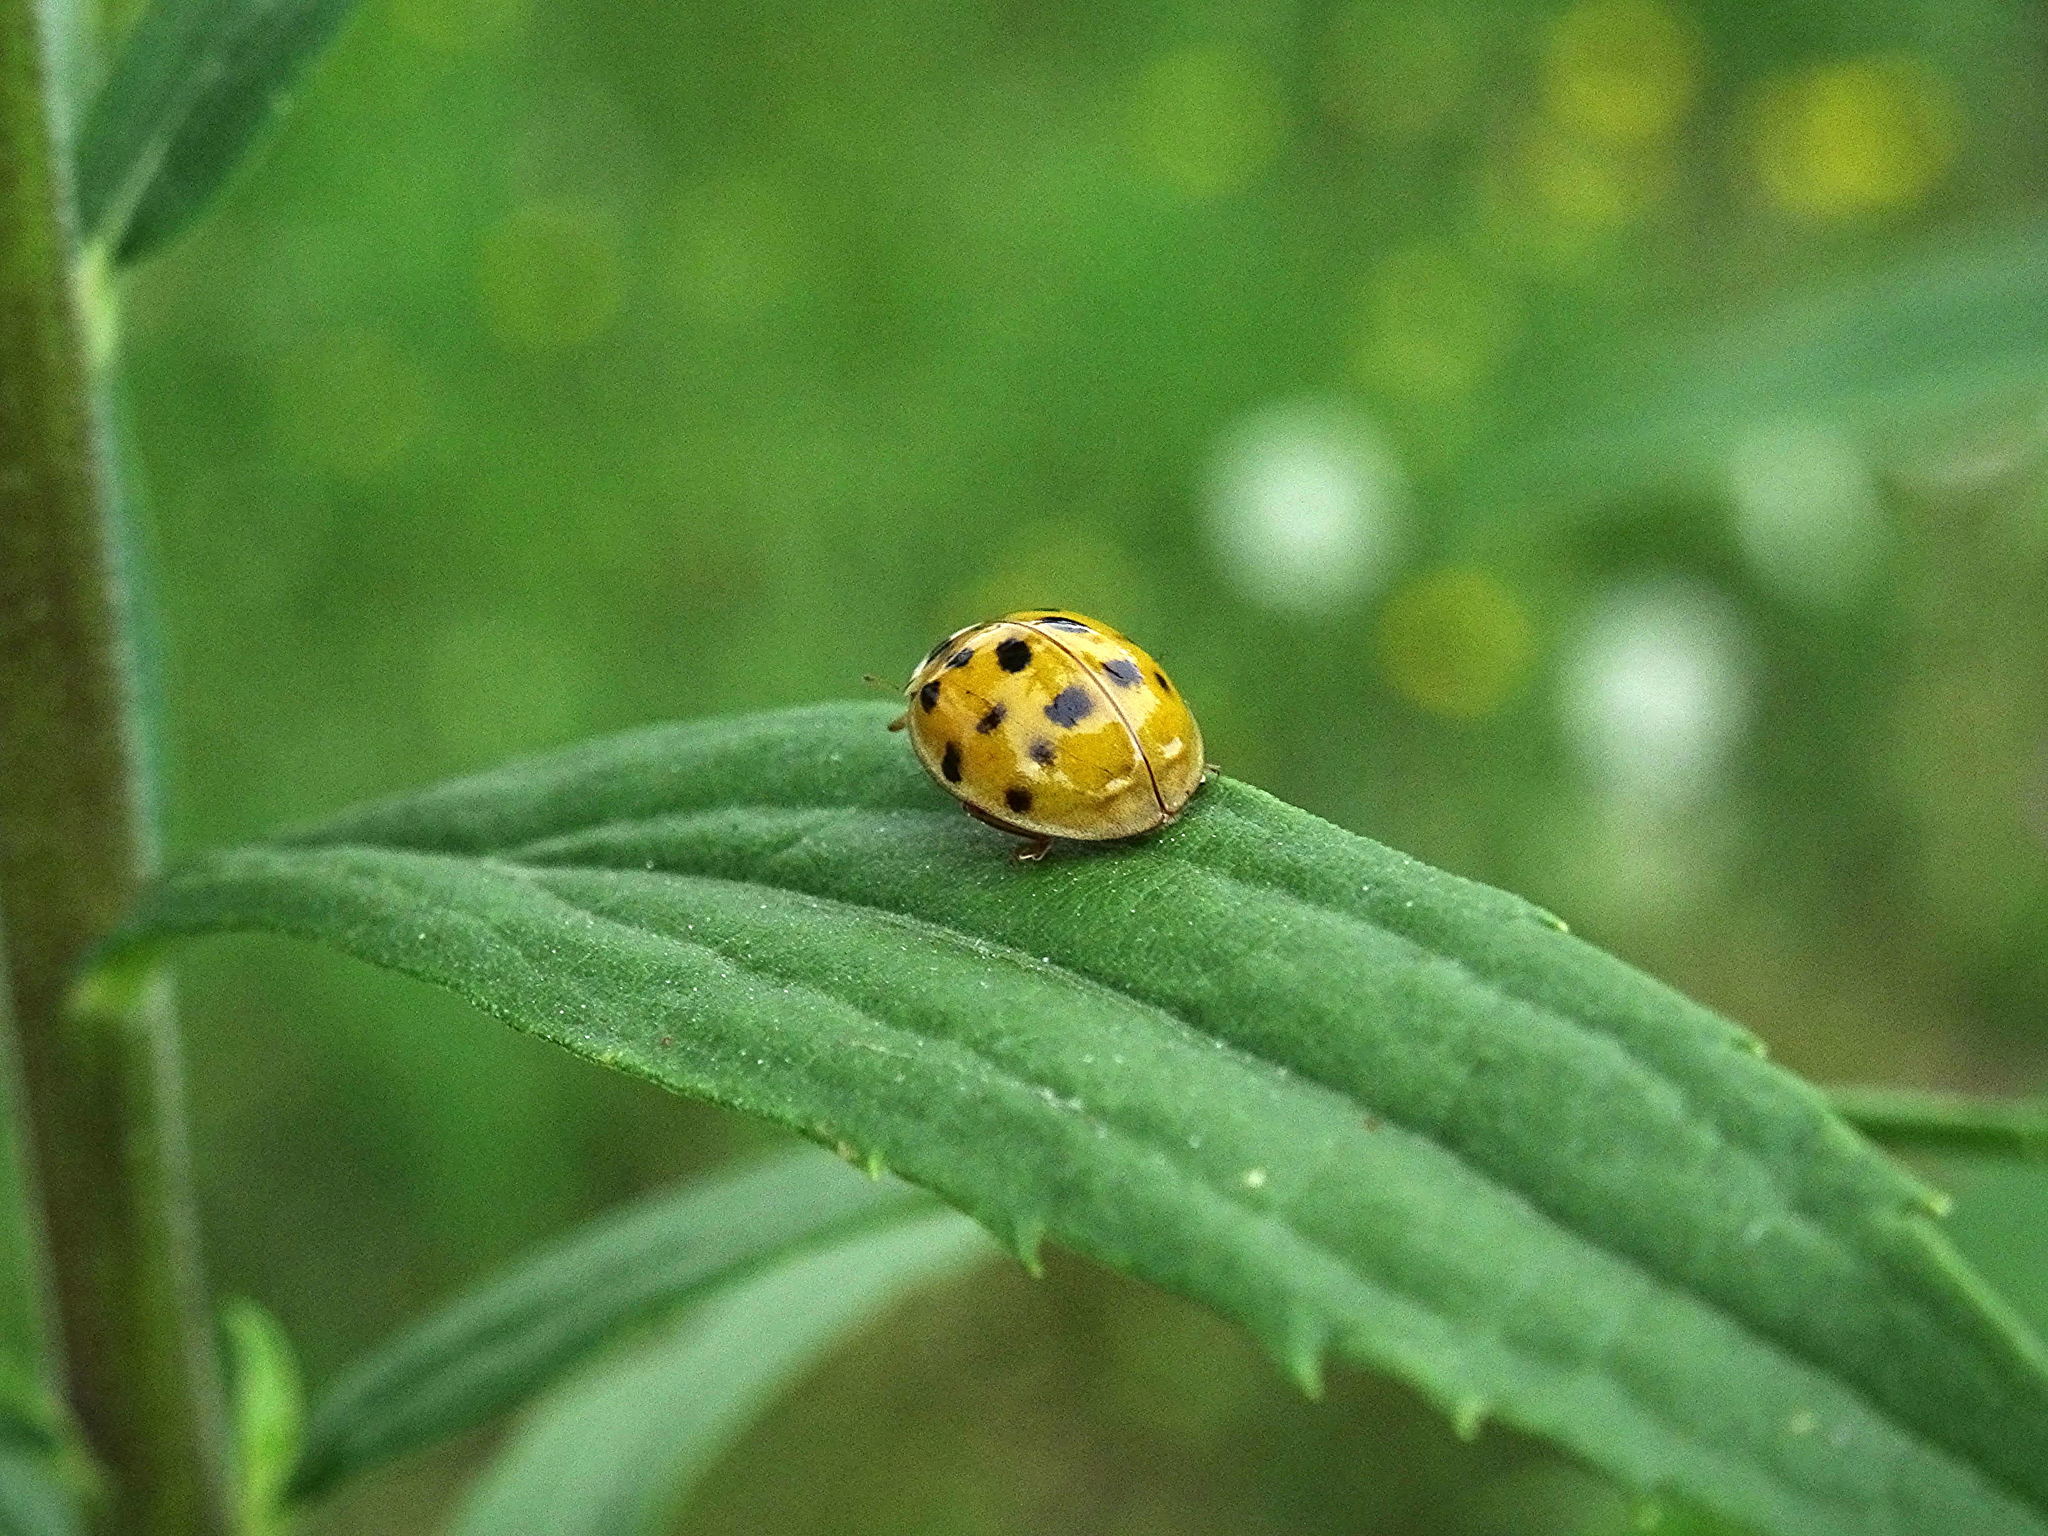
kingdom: Animalia
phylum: Arthropoda
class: Insecta
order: Coleoptera
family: Coccinellidae
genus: Harmonia
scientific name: Harmonia axyridis
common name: Harlequin ladybird
